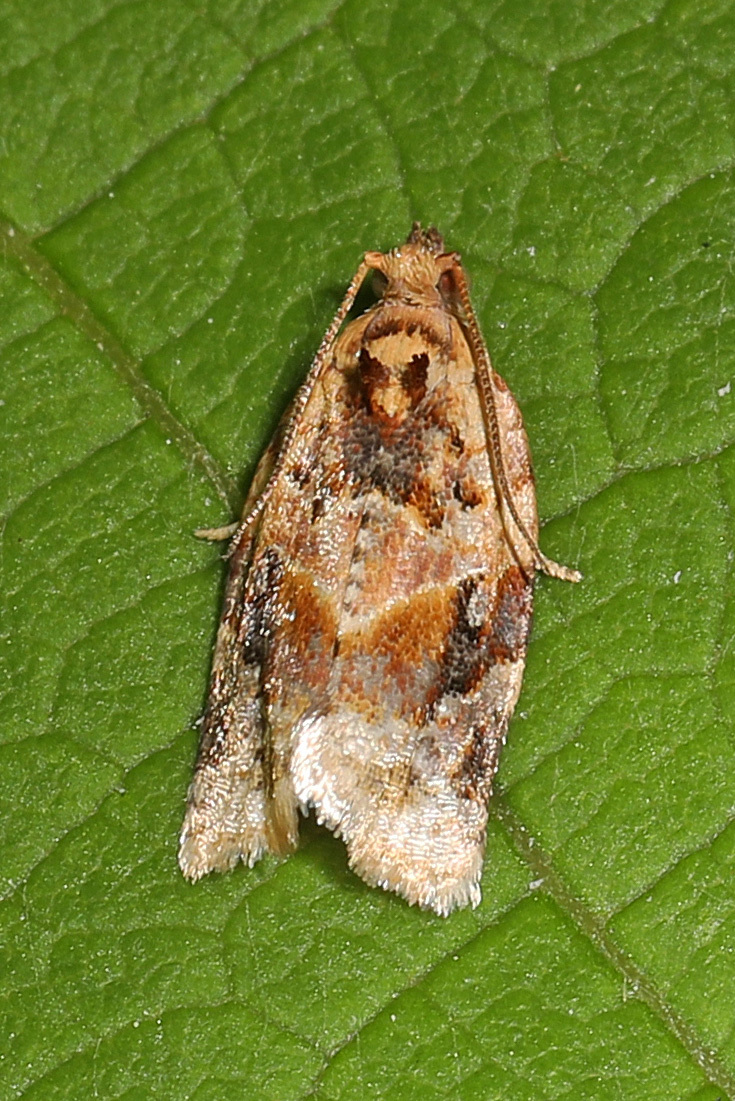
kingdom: Animalia
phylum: Arthropoda
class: Insecta
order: Lepidoptera
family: Tortricidae
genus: Argyrotaenia
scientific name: Argyrotaenia velutinana
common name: Red-banded leafroller moth
